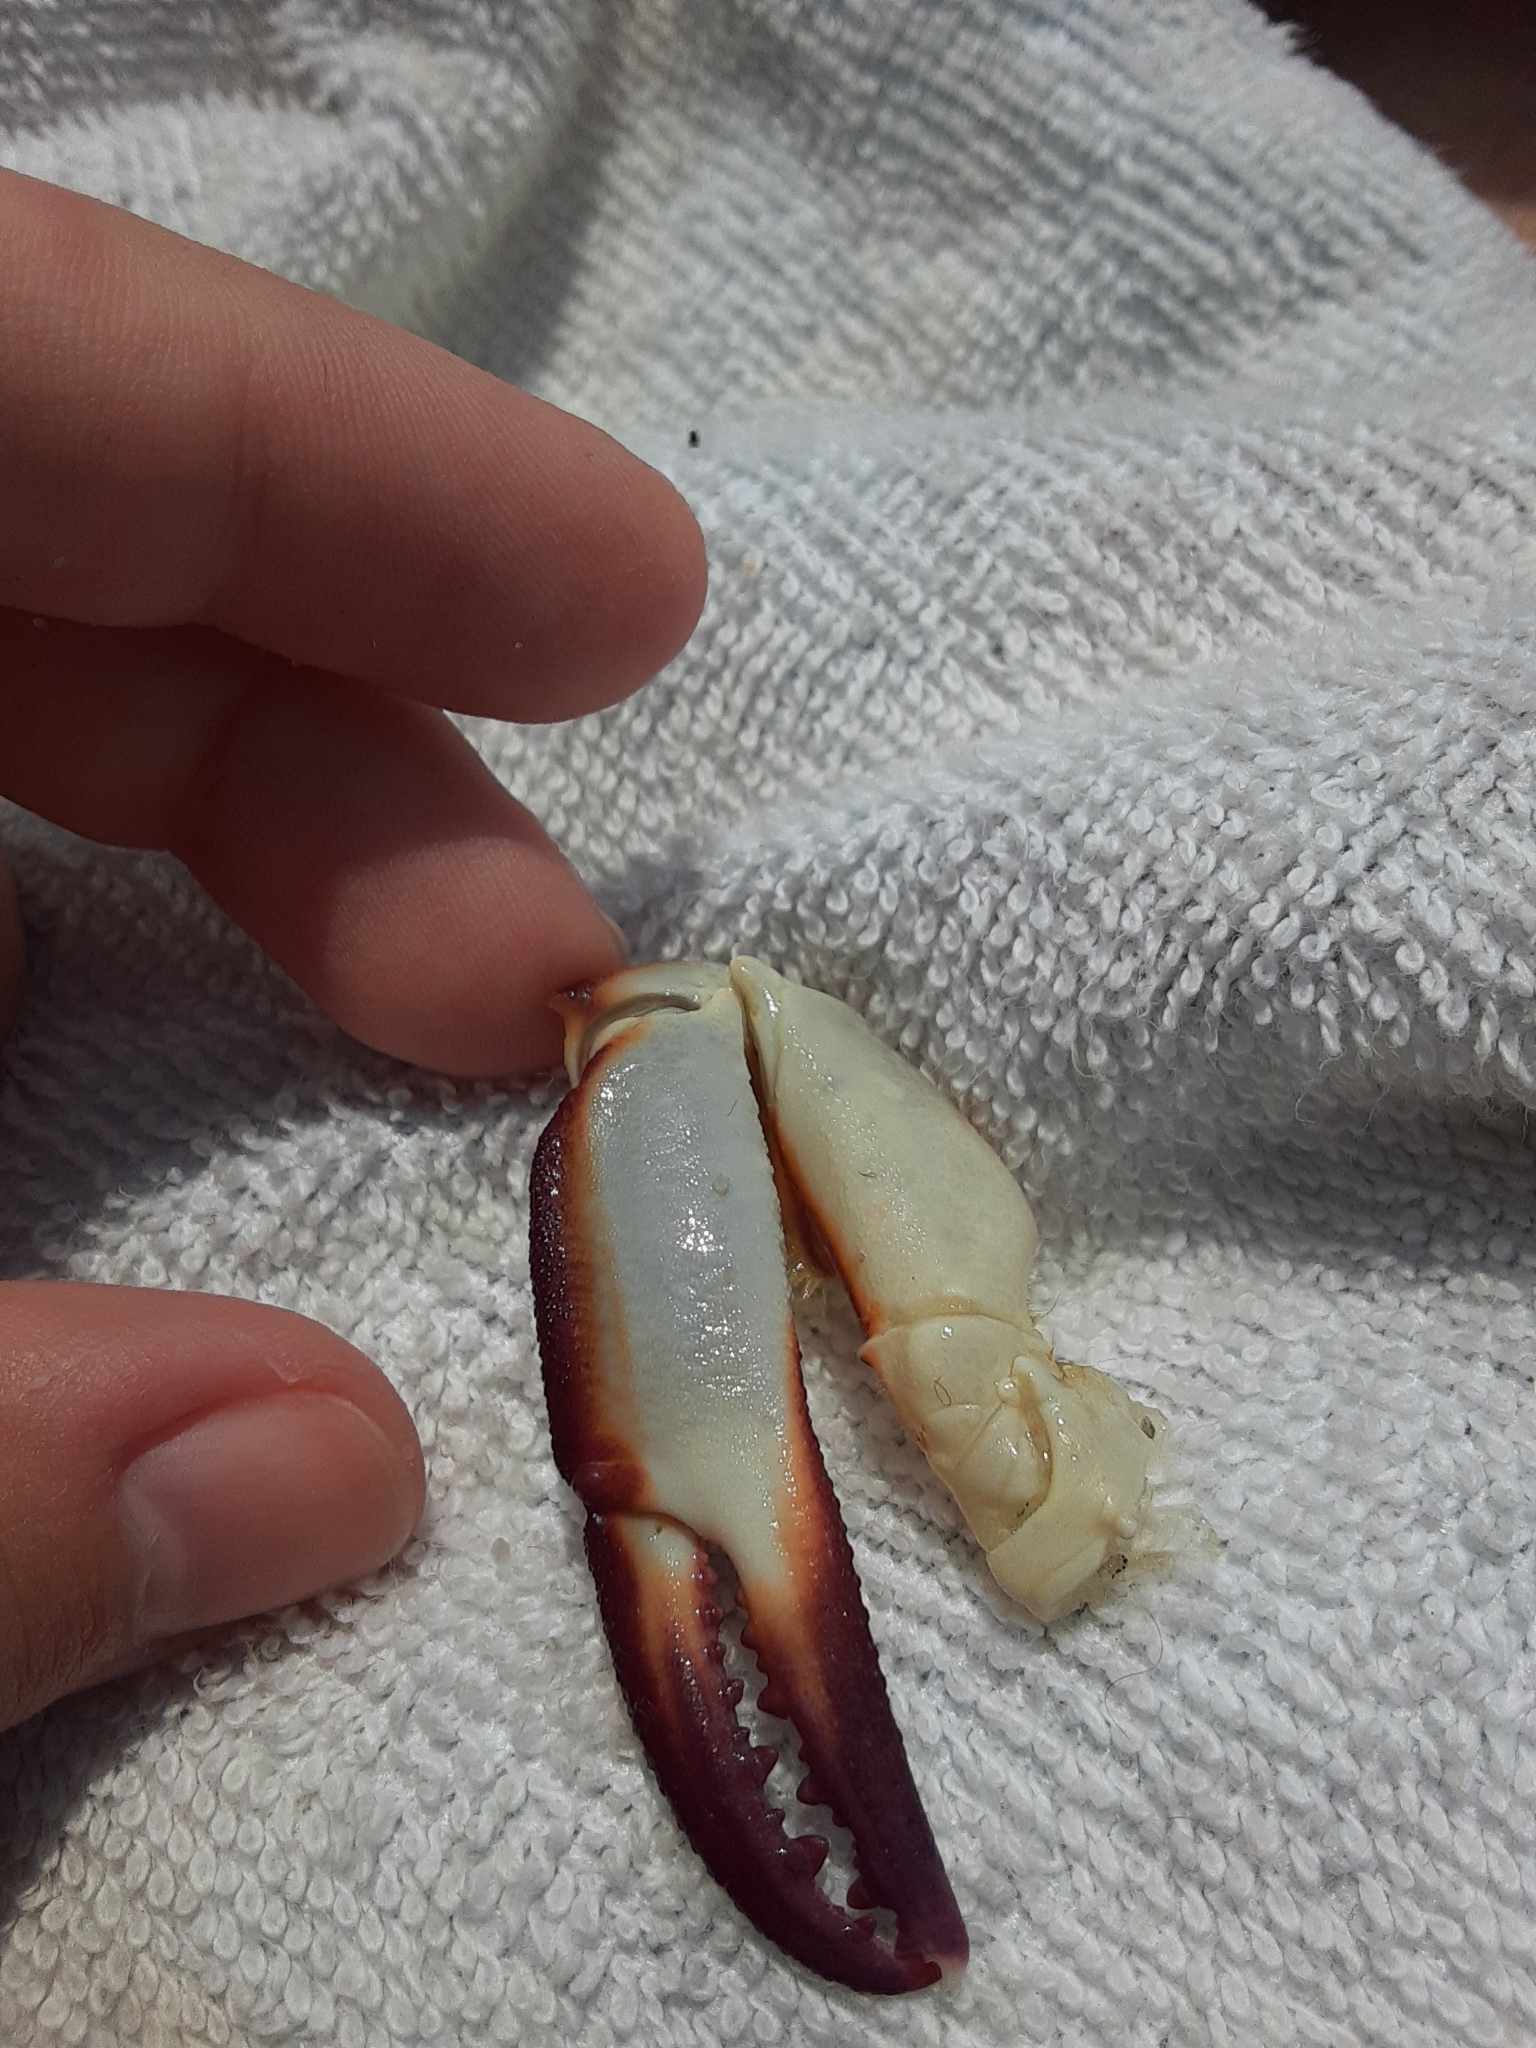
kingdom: Animalia
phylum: Arthropoda
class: Malacostraca
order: Decapoda
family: Ovalipidae
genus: Ovalipes
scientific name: Ovalipes ocellatus
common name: Lady crab
